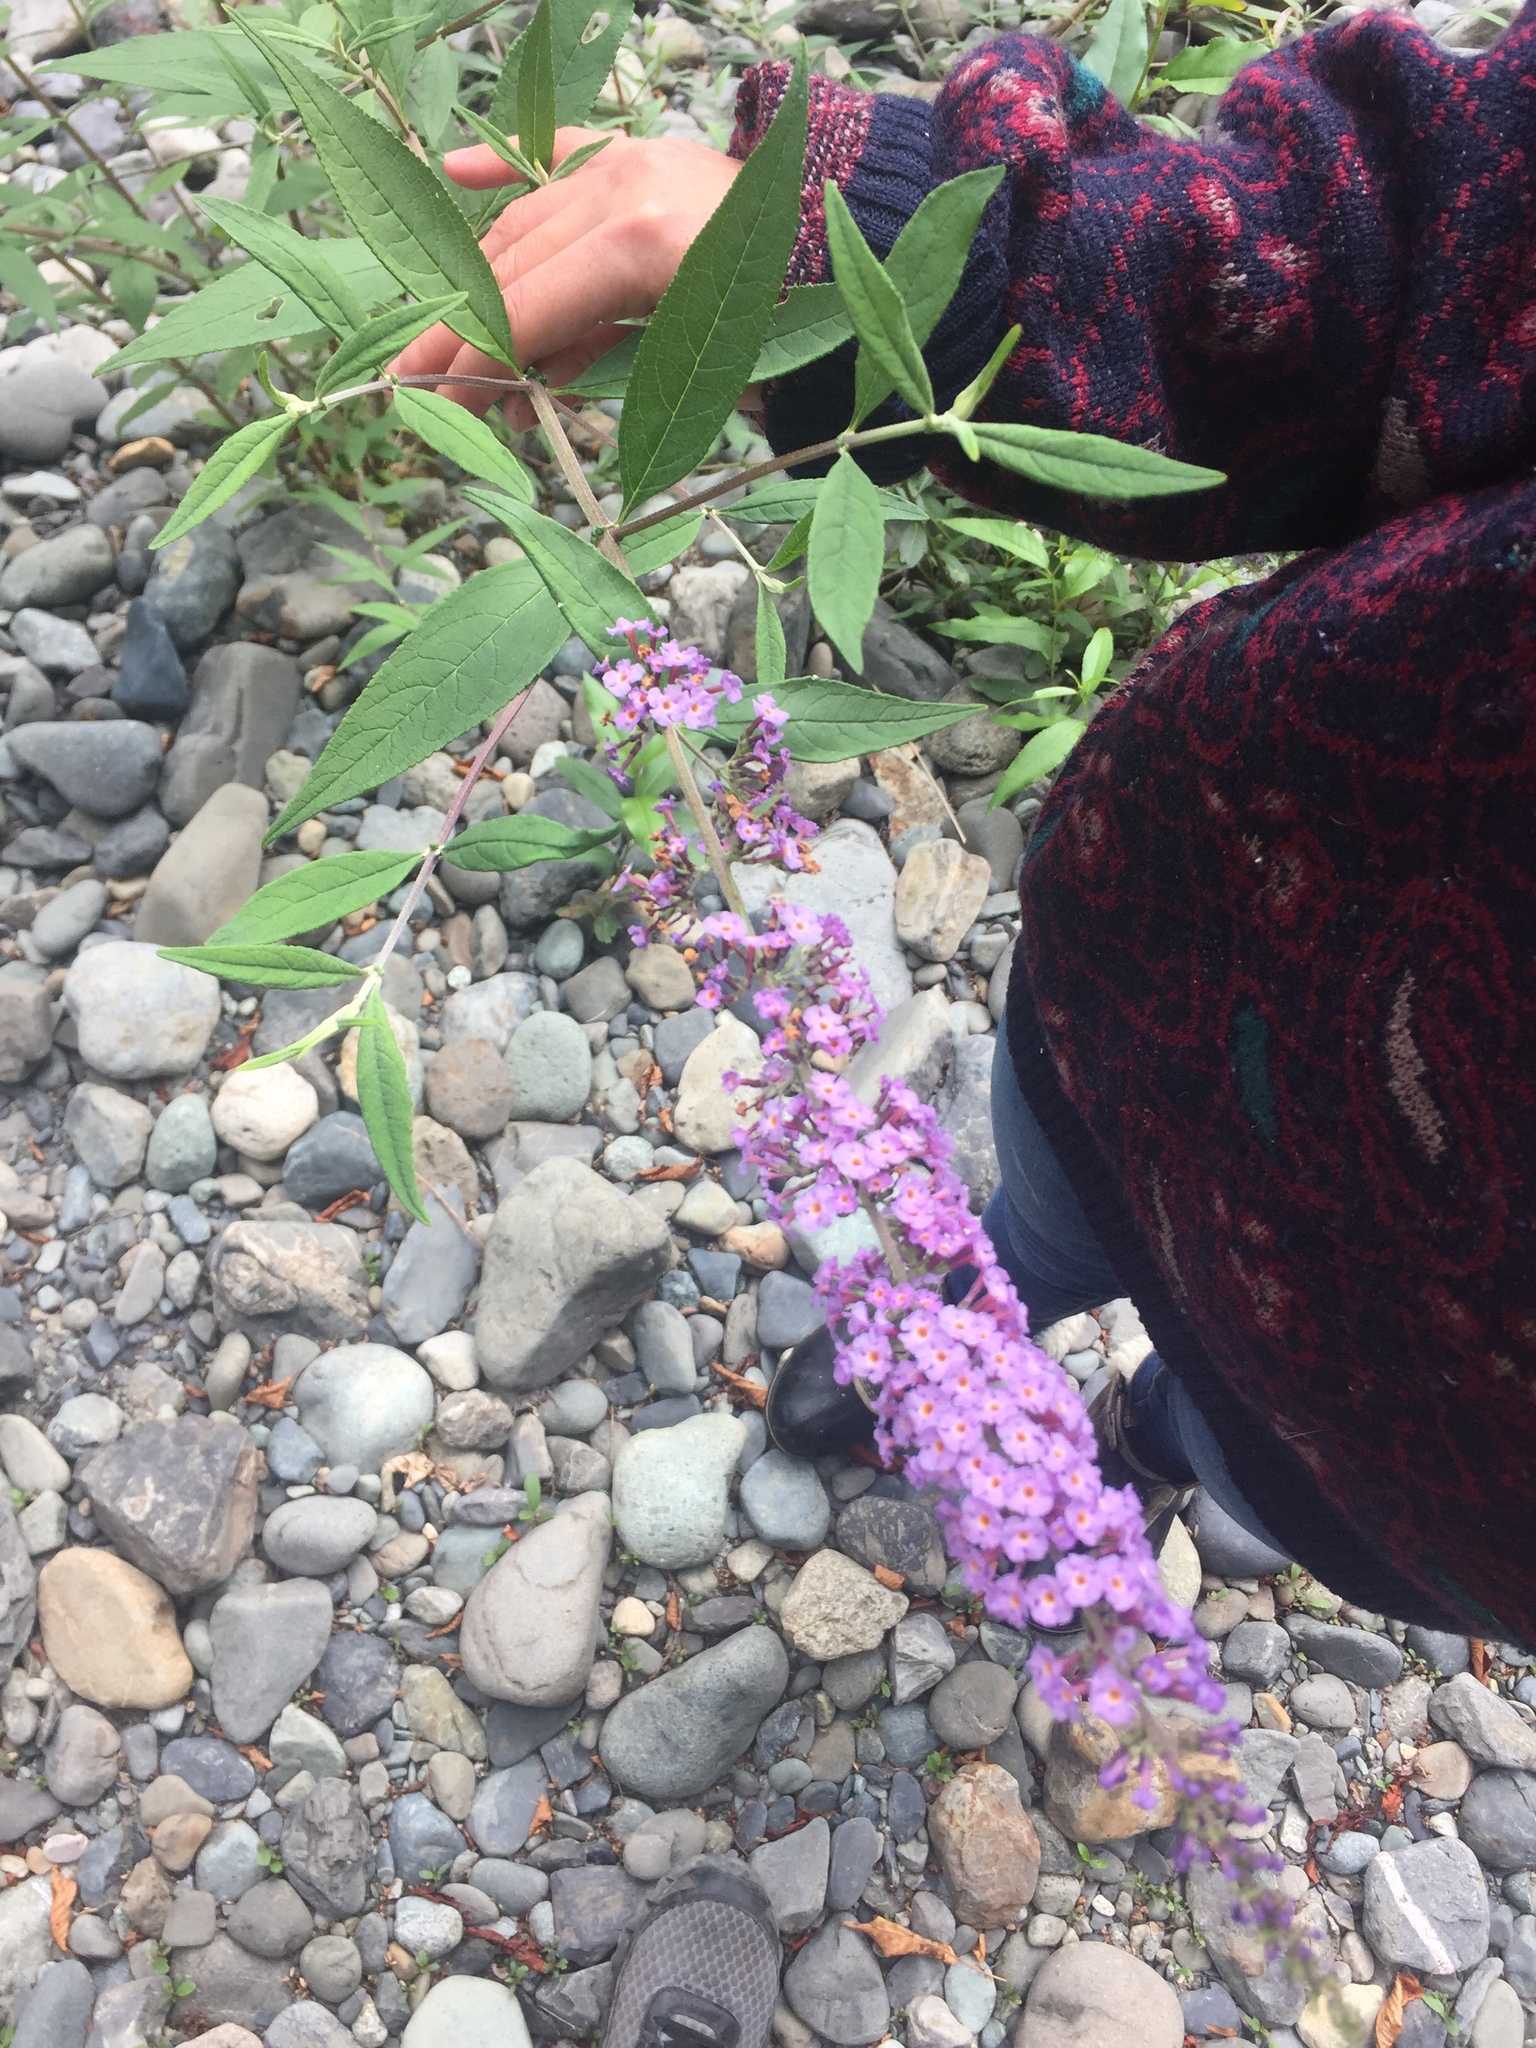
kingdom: Plantae
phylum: Tracheophyta
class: Magnoliopsida
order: Lamiales
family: Scrophulariaceae
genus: Buddleja
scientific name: Buddleja davidii
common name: Butterfly-bush
